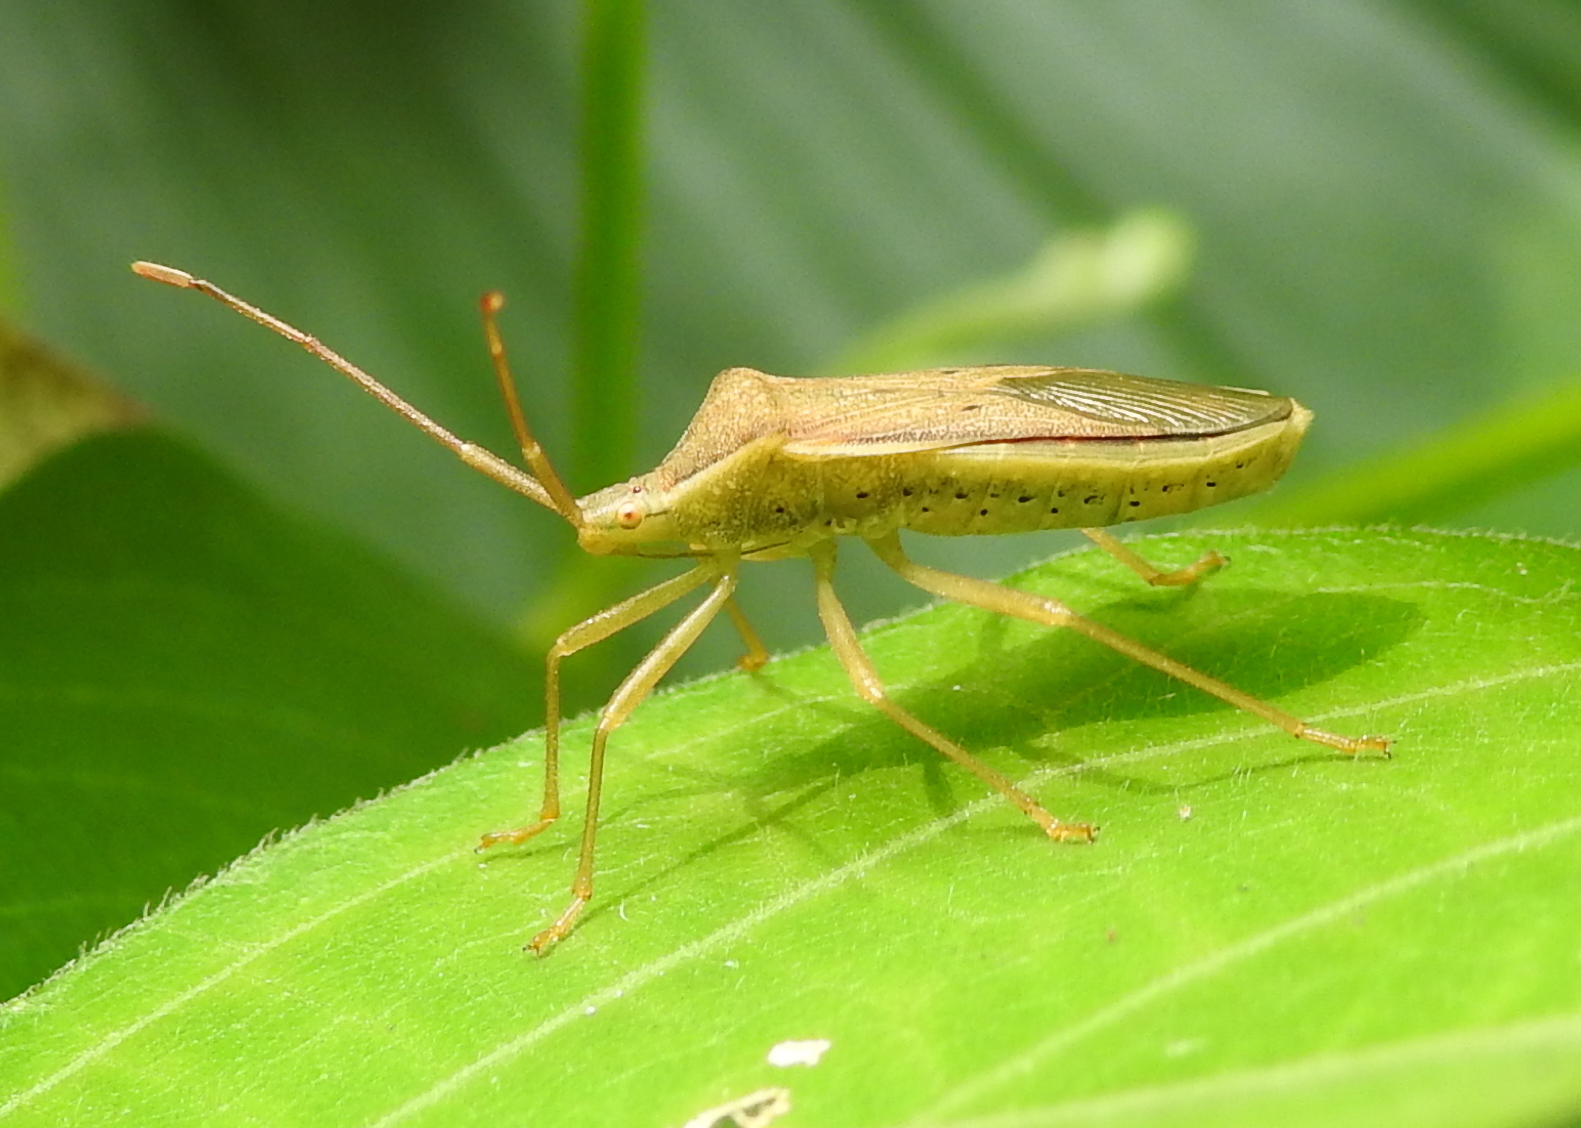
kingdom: Animalia
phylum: Arthropoda
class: Insecta
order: Hemiptera
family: Coreidae
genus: Homoeocerus
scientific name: Homoeocerus marginellus
